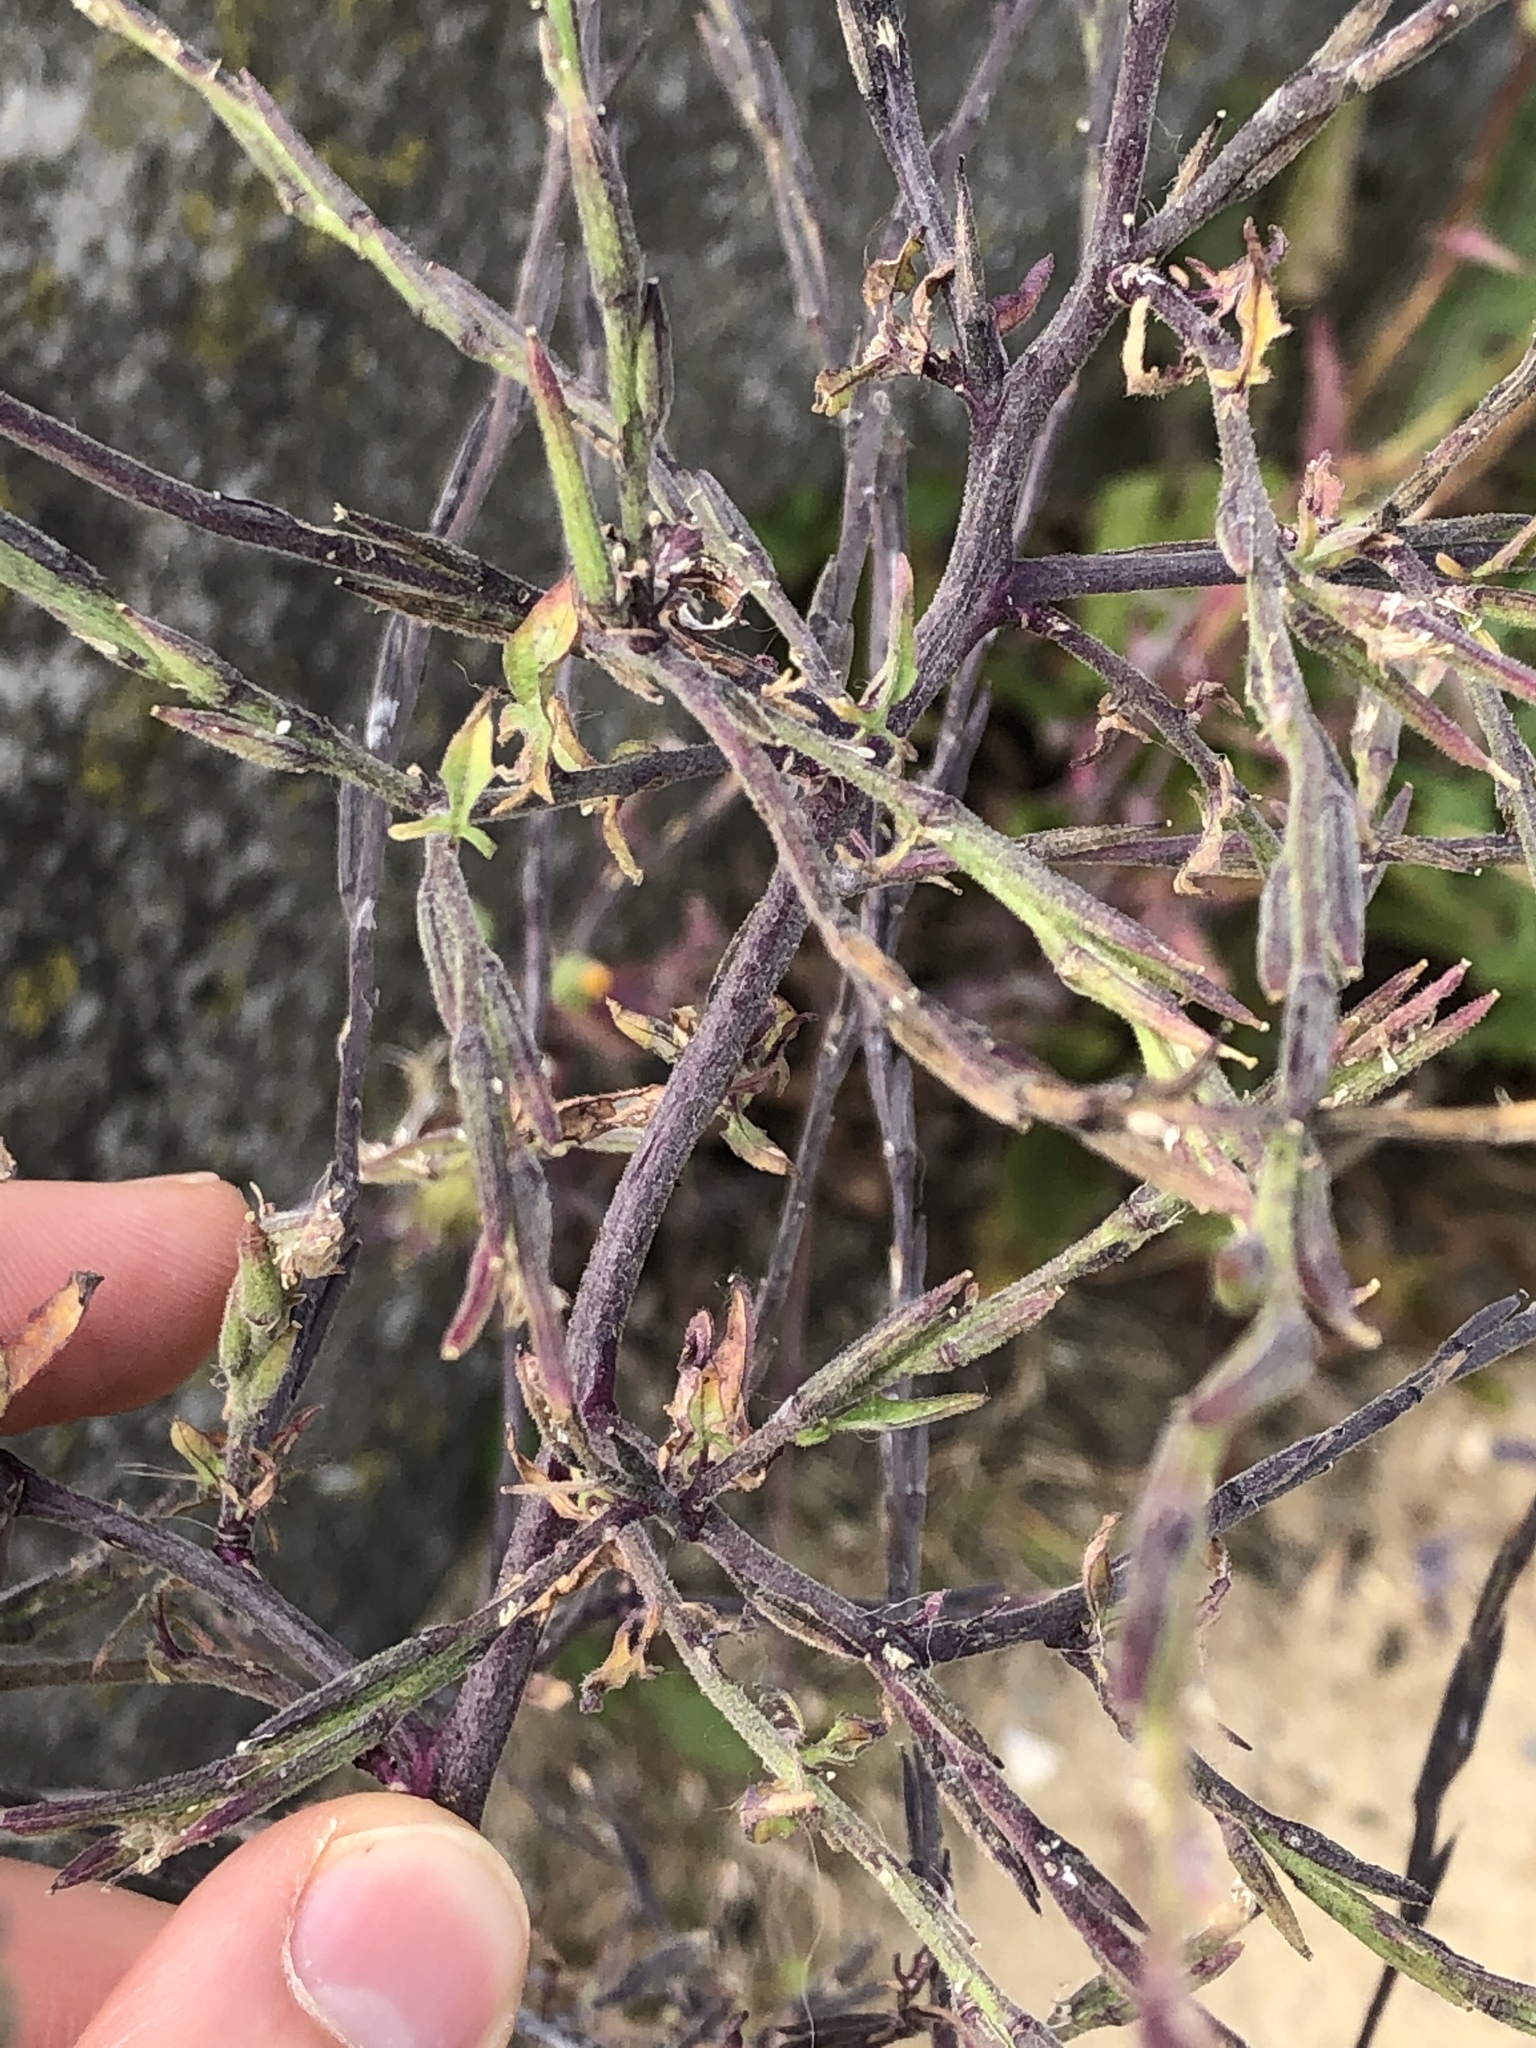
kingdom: Plantae
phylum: Tracheophyta
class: Magnoliopsida
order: Brassicales
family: Brassicaceae
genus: Sisymbrium
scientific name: Sisymbrium officinale
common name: Hedge mustard
